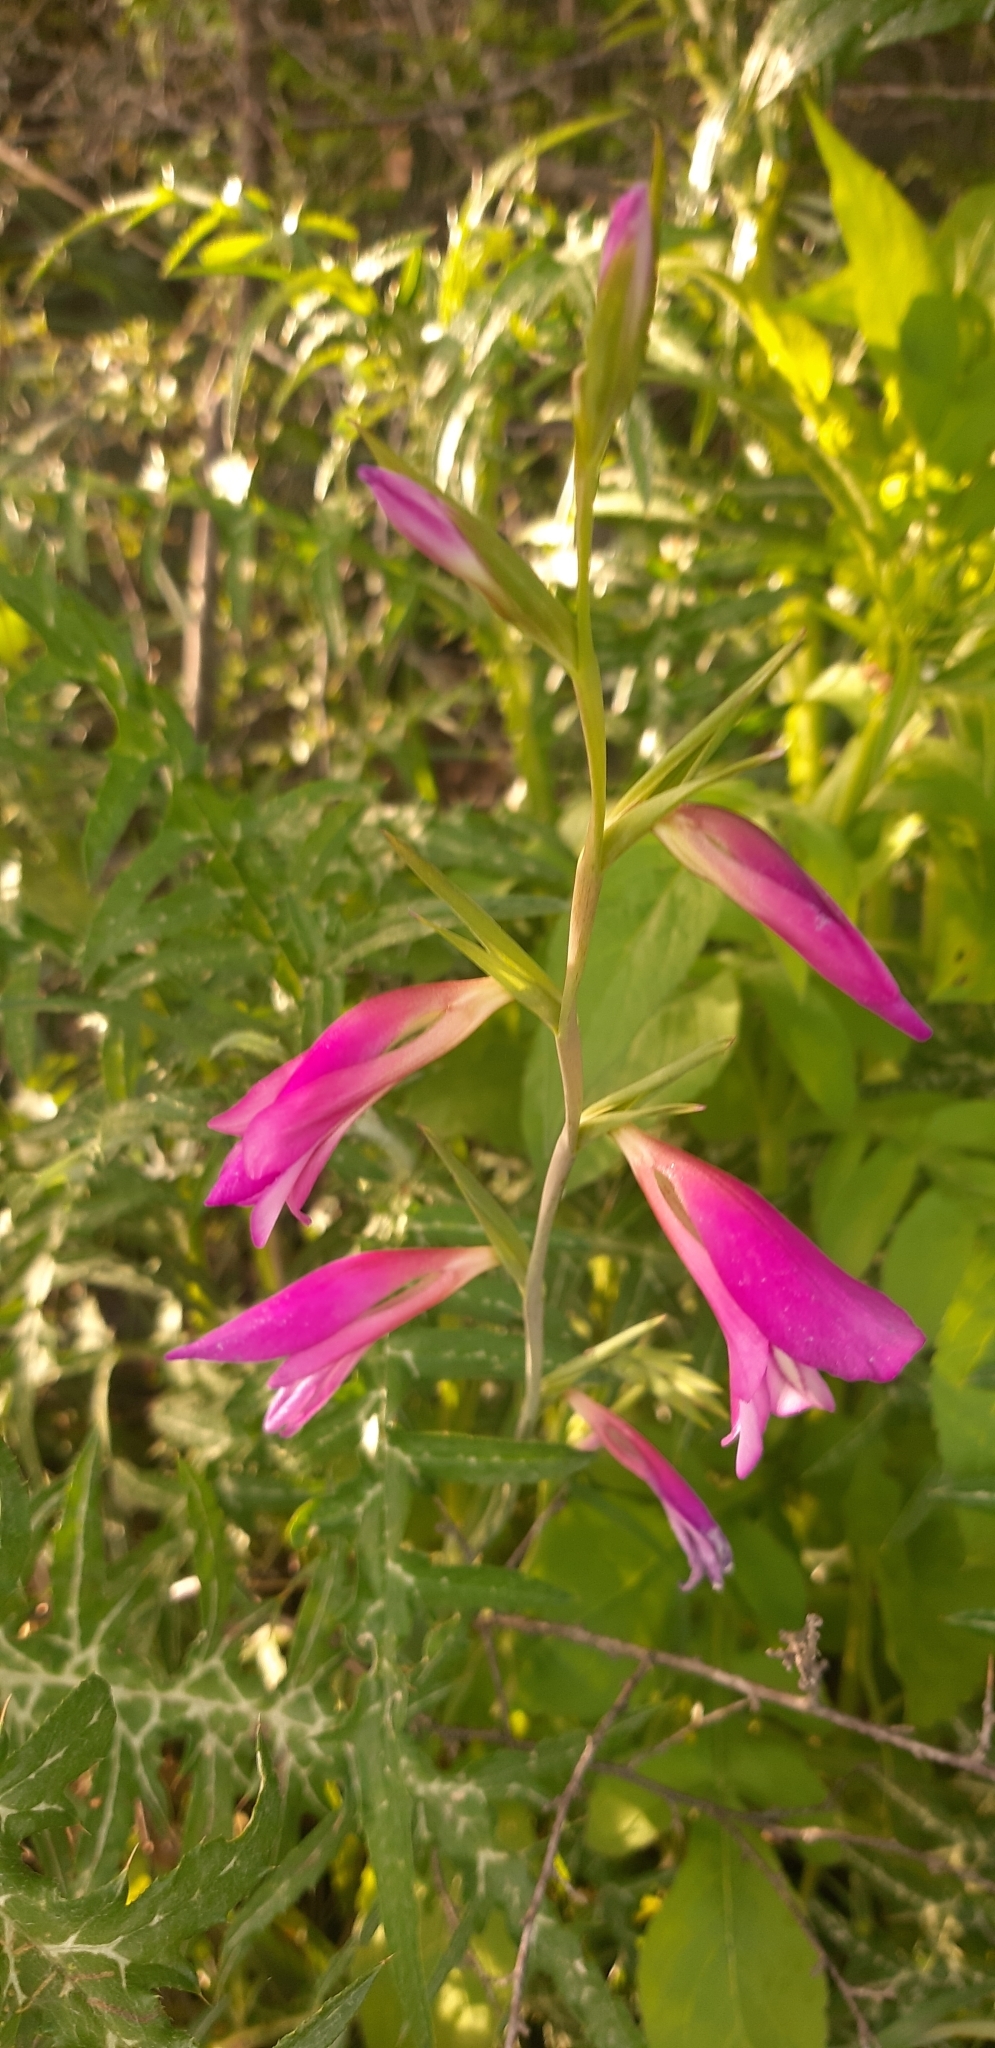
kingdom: Plantae
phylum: Tracheophyta
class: Liliopsida
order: Asparagales
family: Iridaceae
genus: Gladiolus
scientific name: Gladiolus italicus
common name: Field gladiolus
